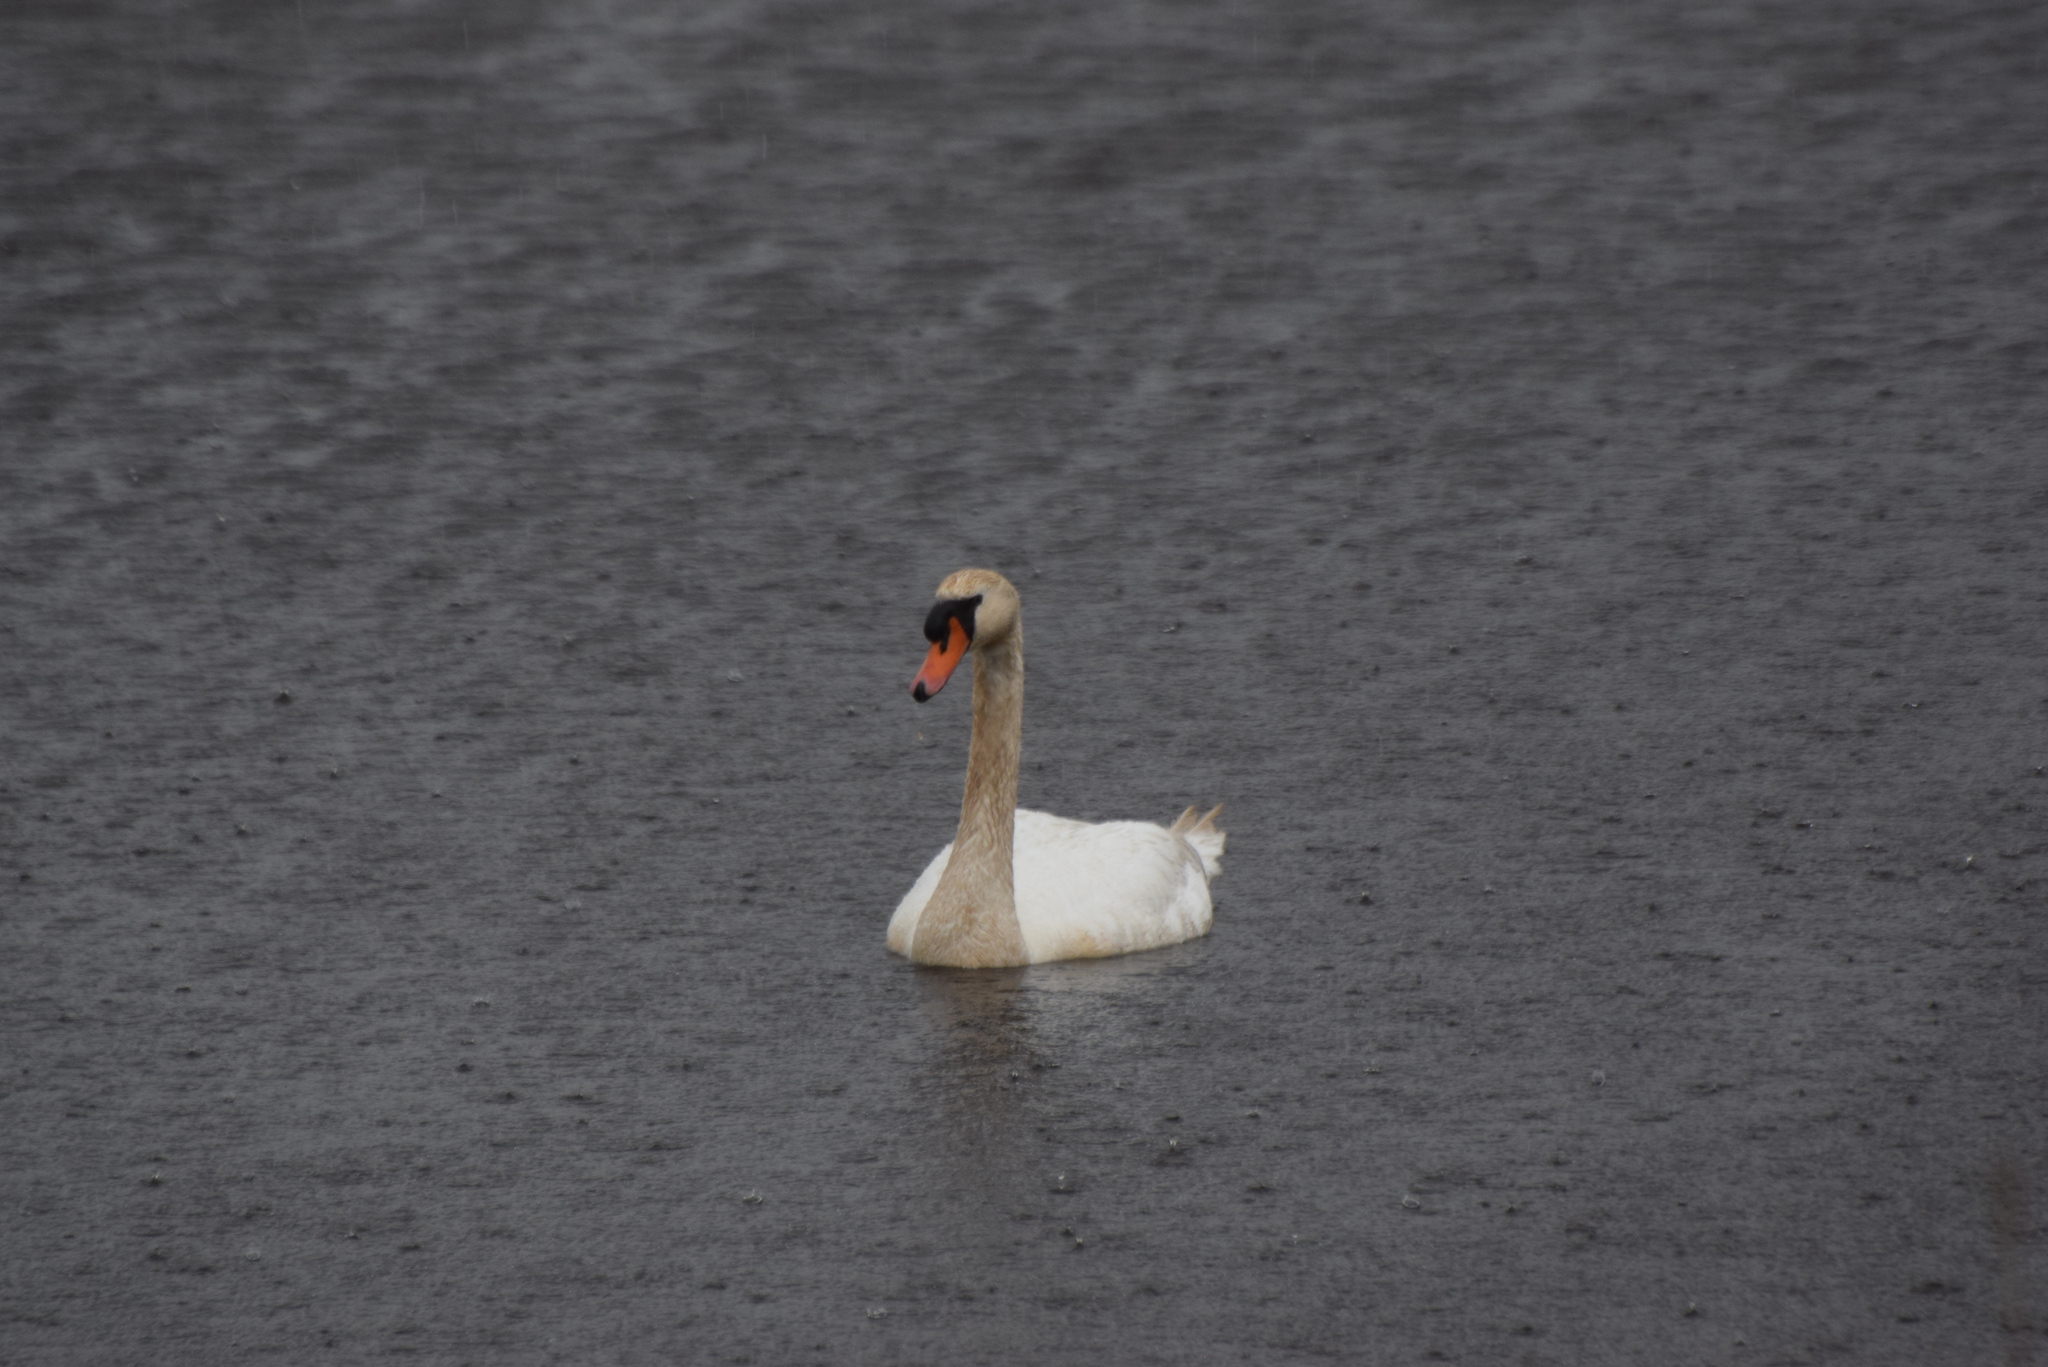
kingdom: Animalia
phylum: Chordata
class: Aves
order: Anseriformes
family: Anatidae
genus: Cygnus
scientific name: Cygnus olor
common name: Mute swan
